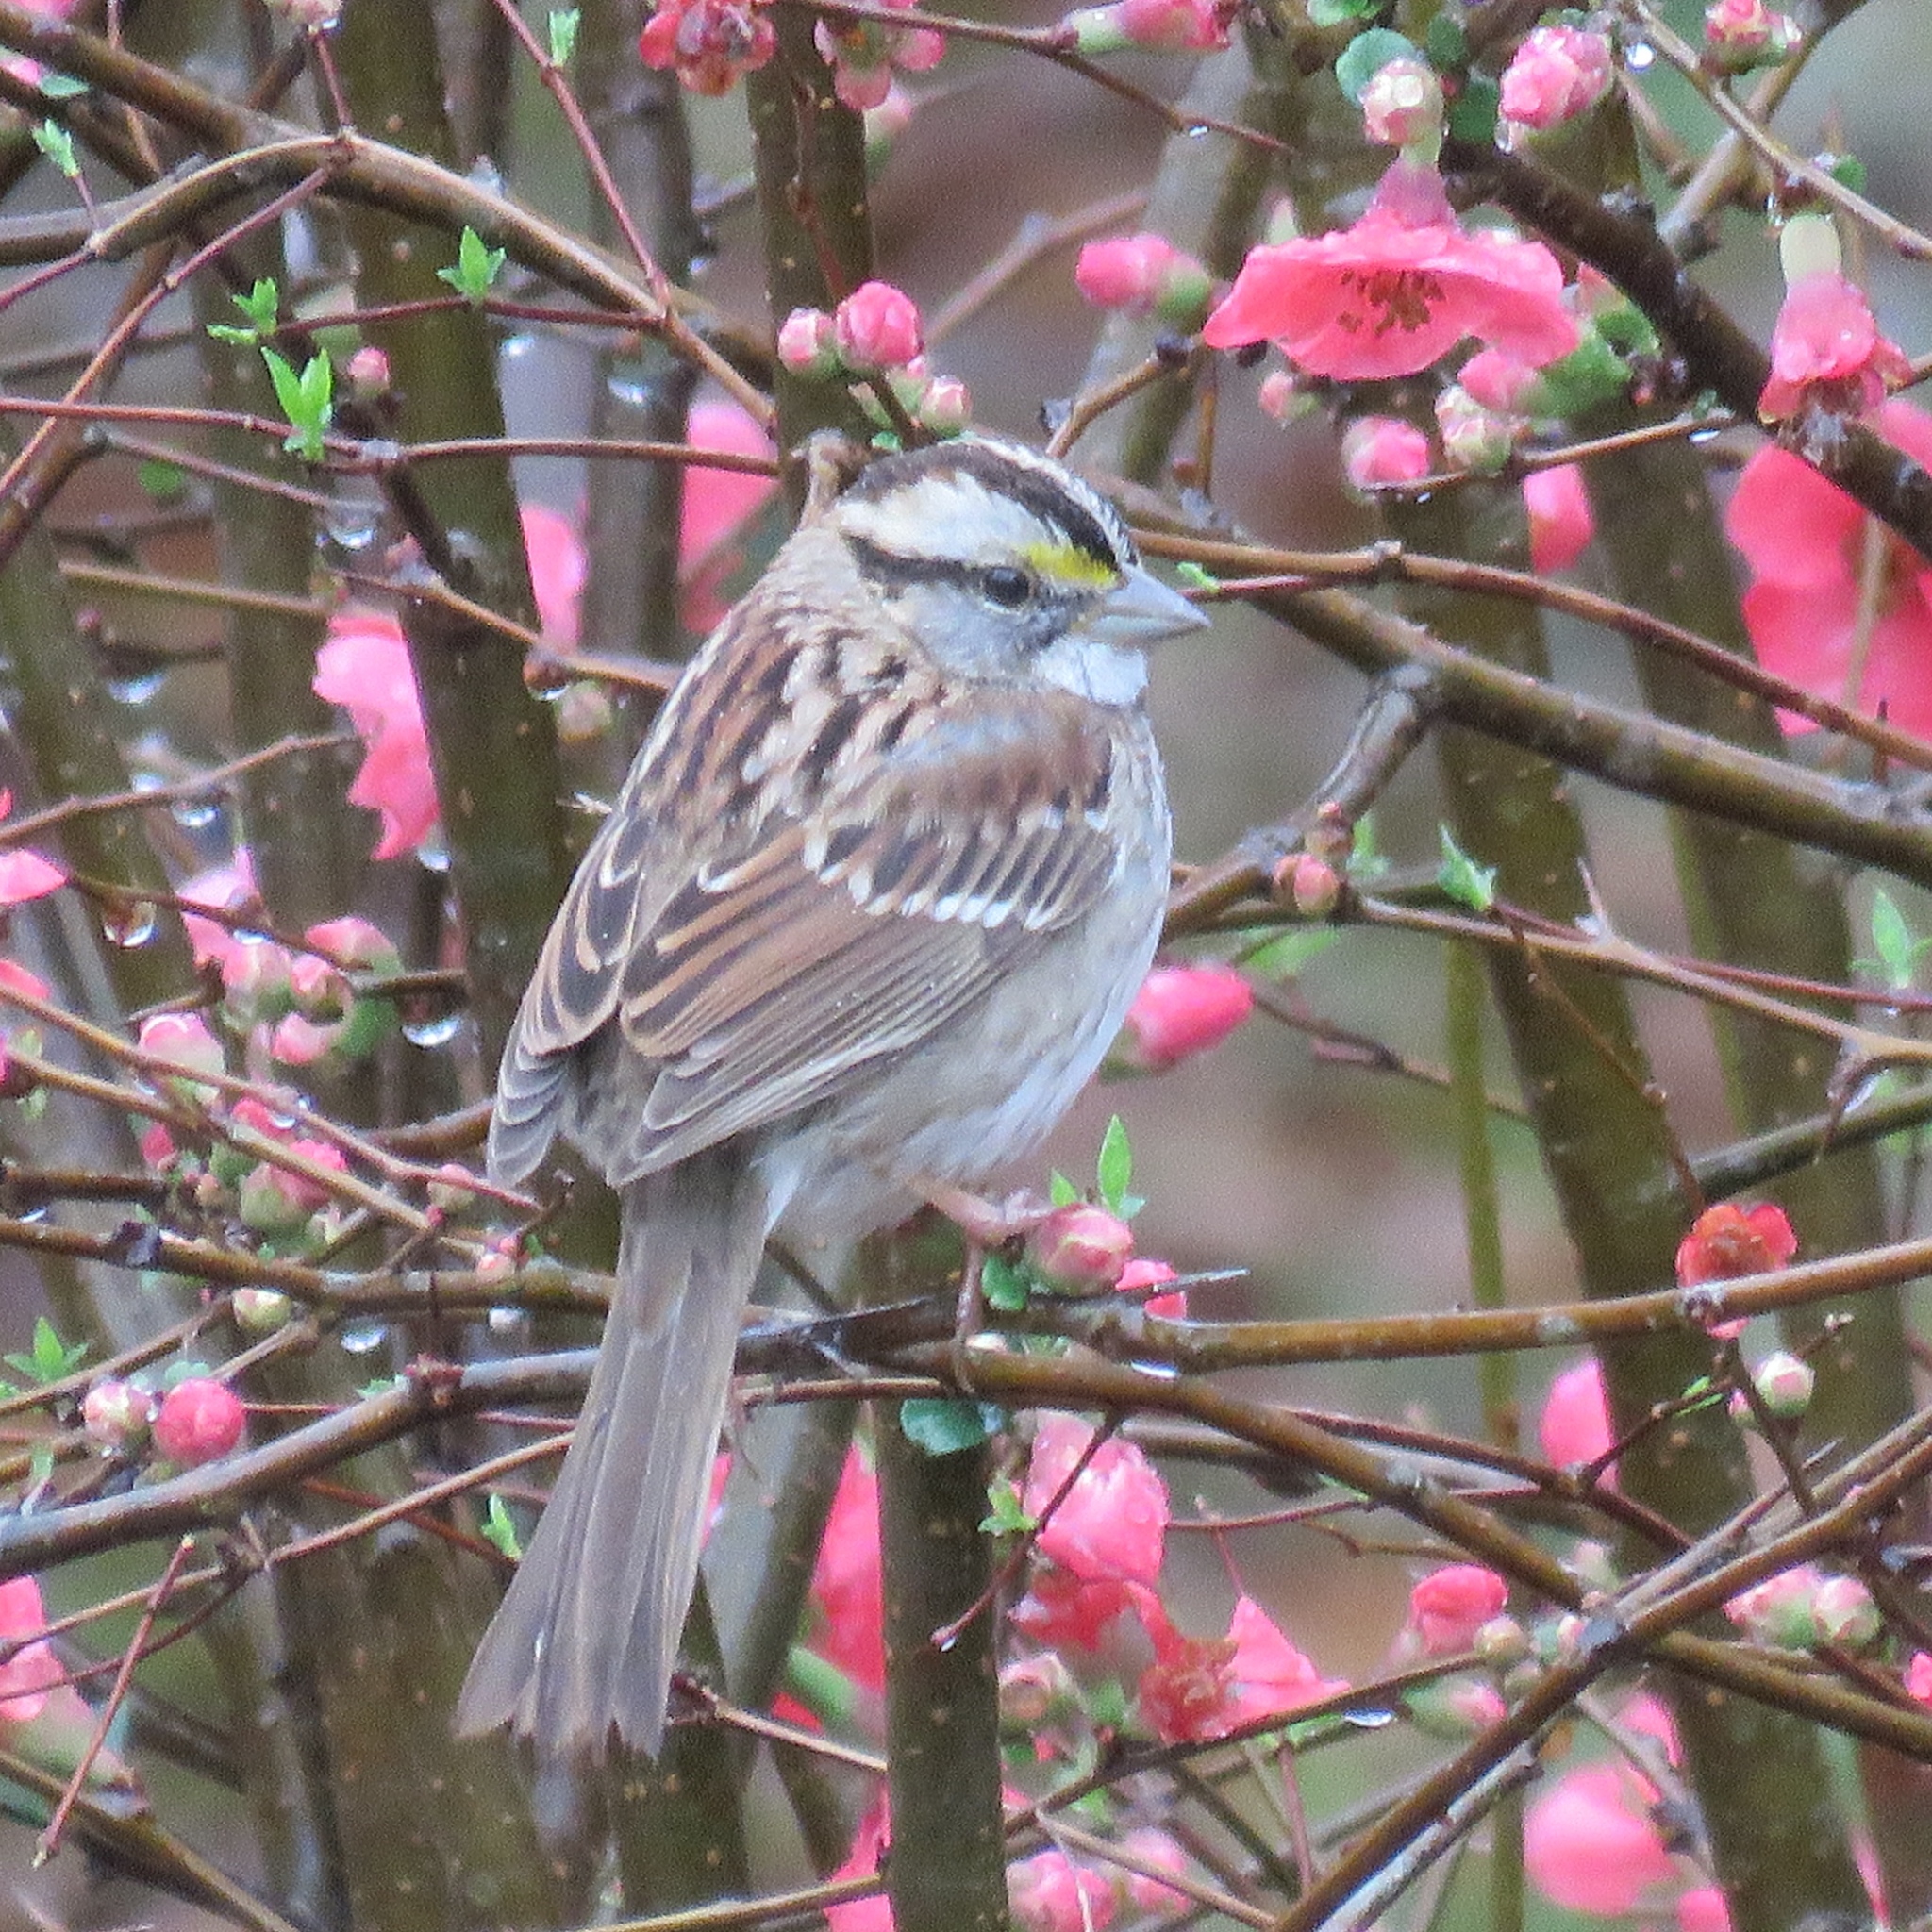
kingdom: Animalia
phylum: Chordata
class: Aves
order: Passeriformes
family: Passerellidae
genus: Zonotrichia
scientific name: Zonotrichia albicollis
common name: White-throated sparrow
